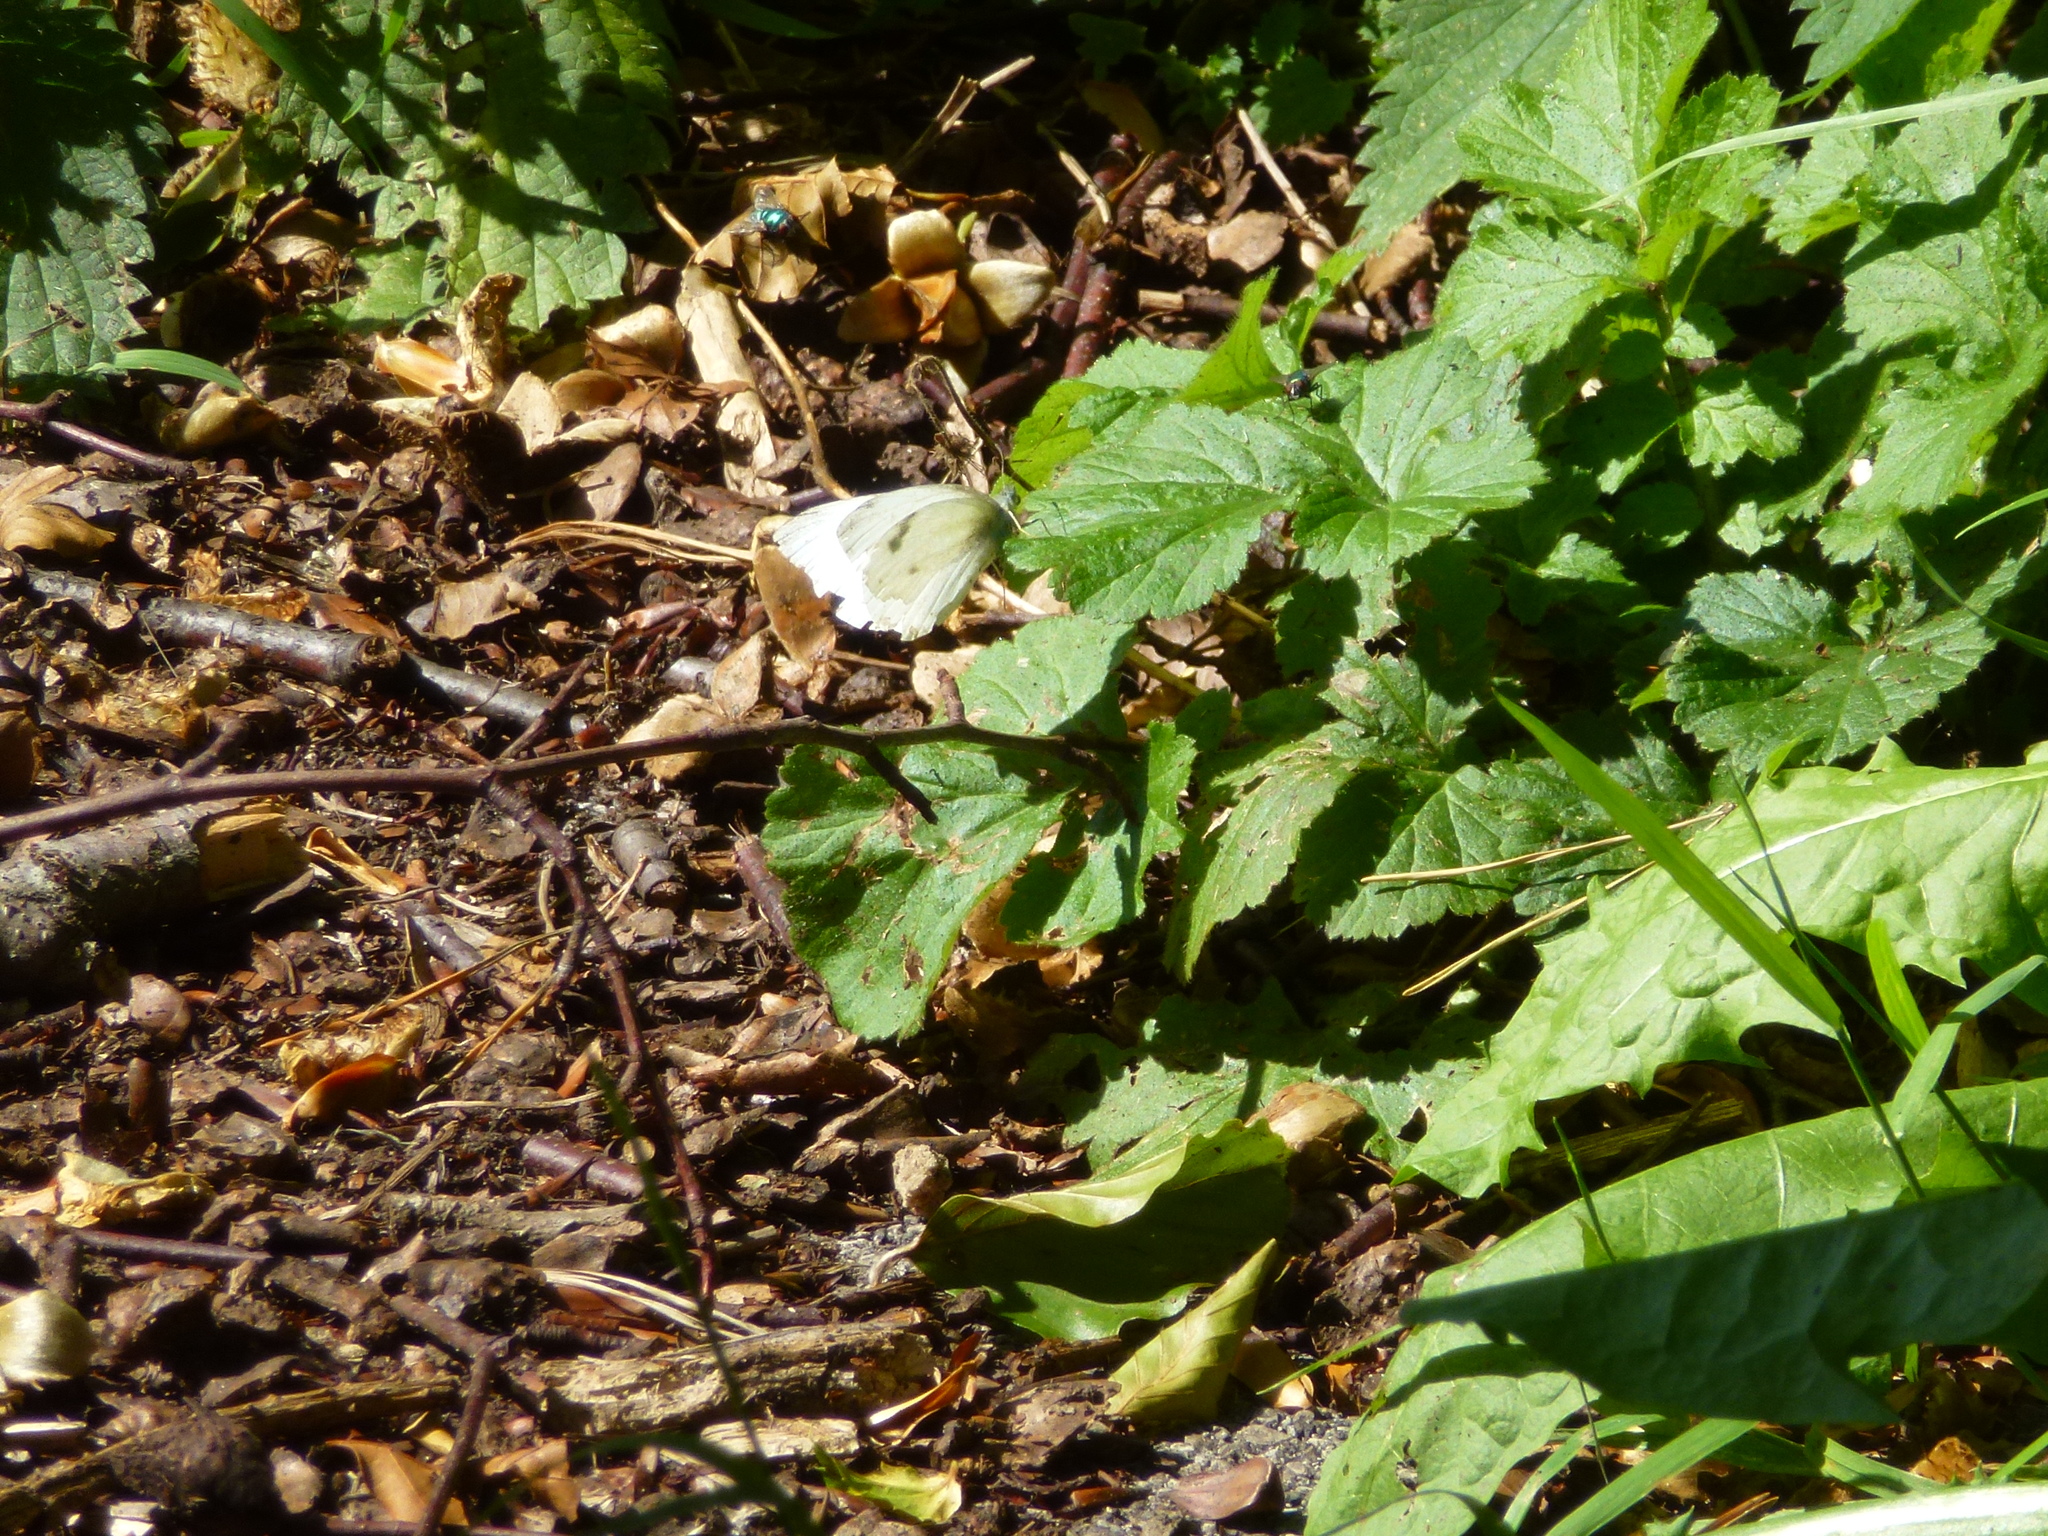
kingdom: Animalia
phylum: Arthropoda
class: Insecta
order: Lepidoptera
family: Pieridae
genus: Pieris
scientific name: Pieris rapae
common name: Small white
